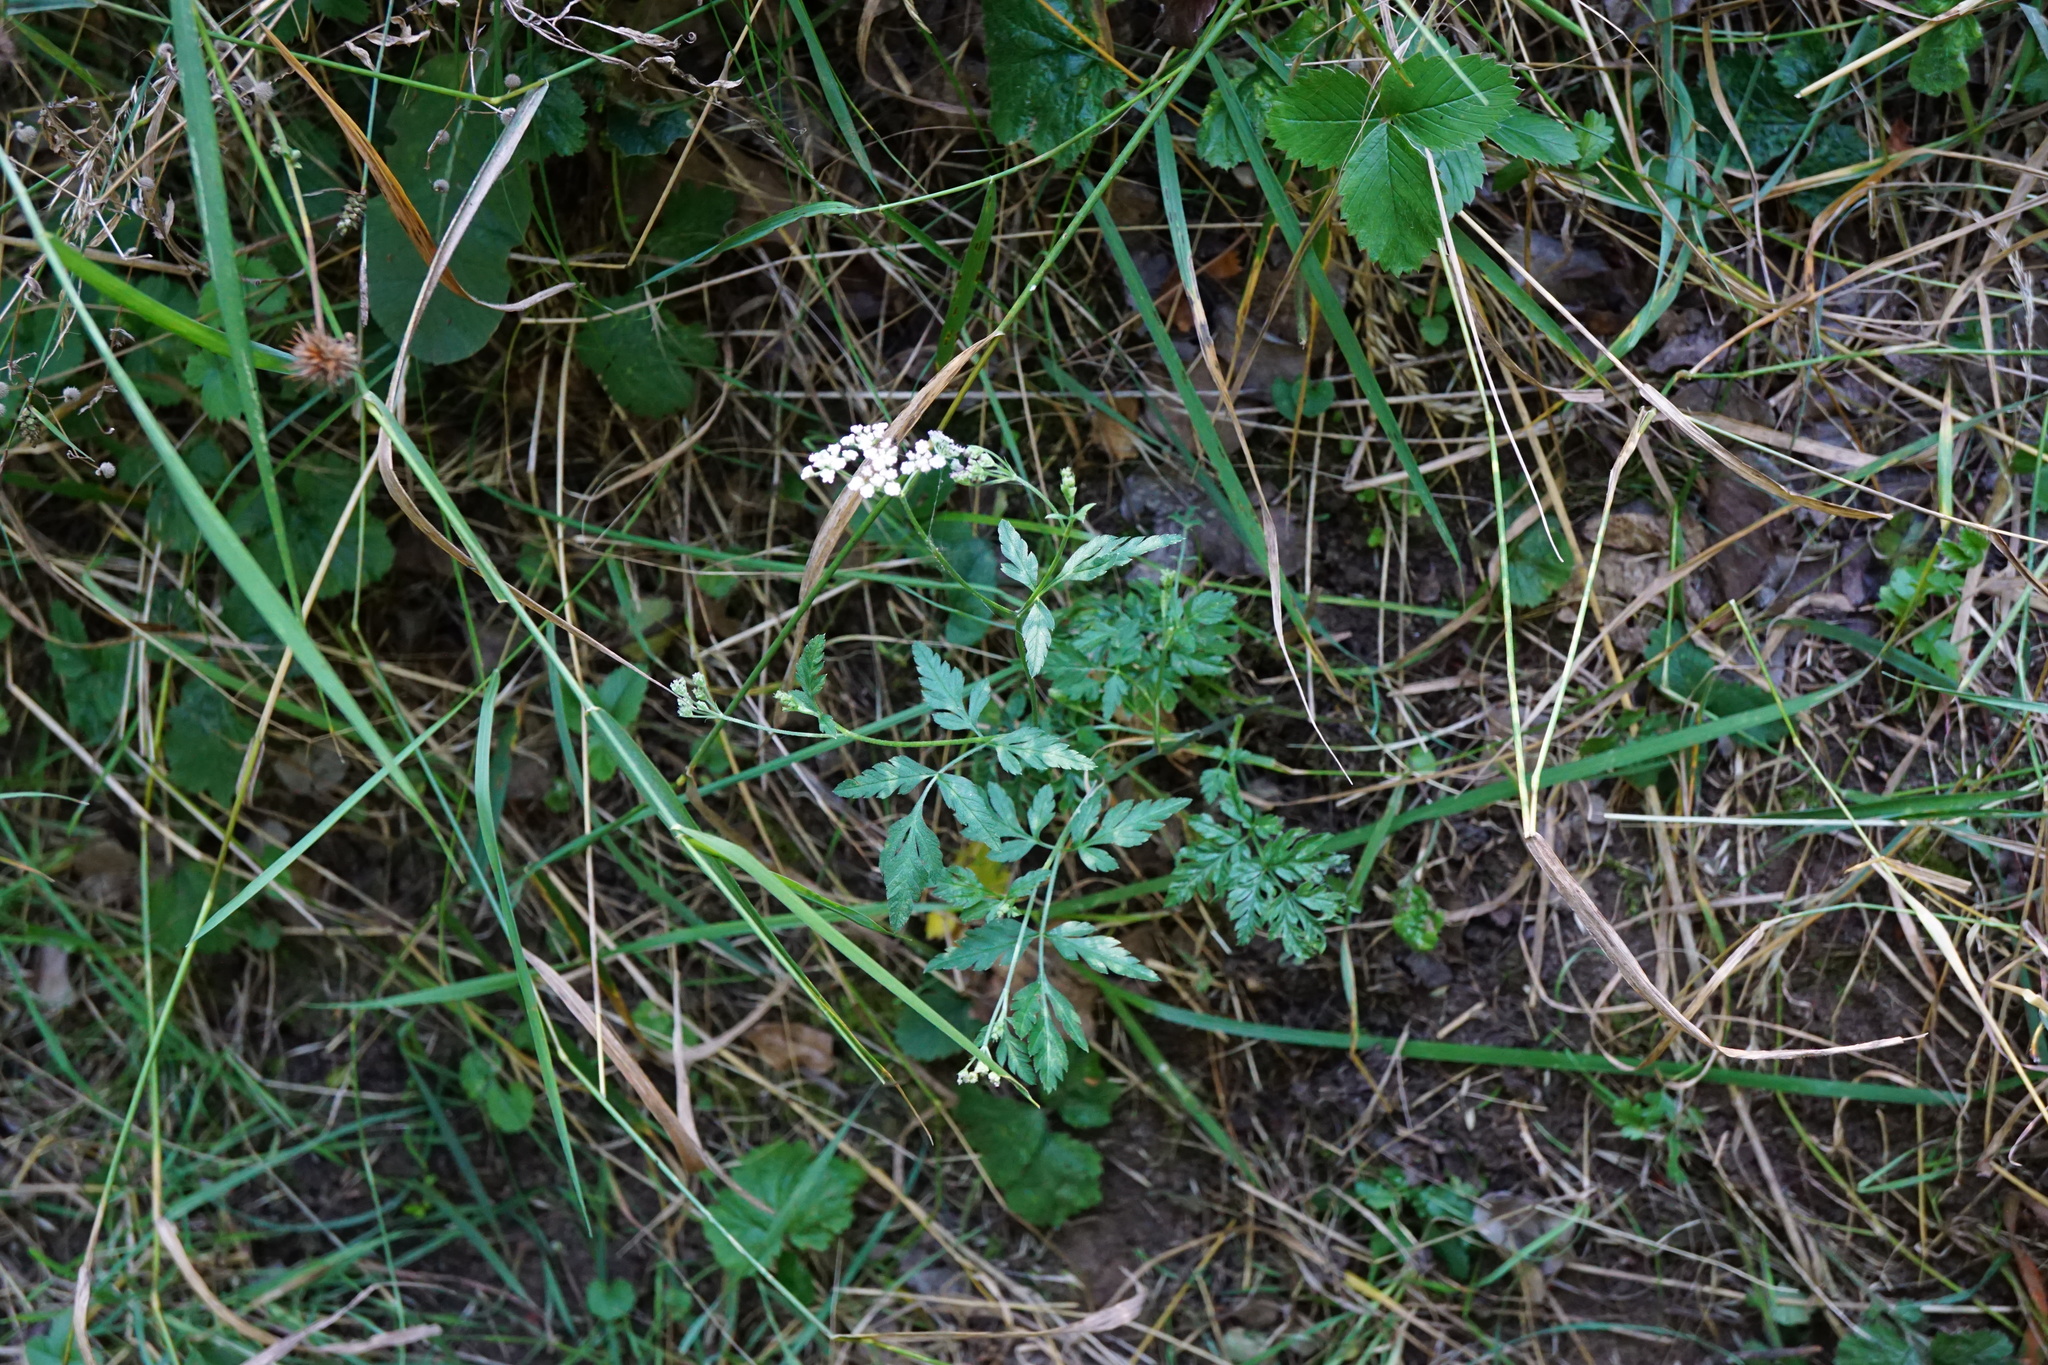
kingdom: Plantae
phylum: Tracheophyta
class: Magnoliopsida
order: Apiales
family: Apiaceae
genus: Torilis
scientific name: Torilis japonica
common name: Upright hedge-parsley
